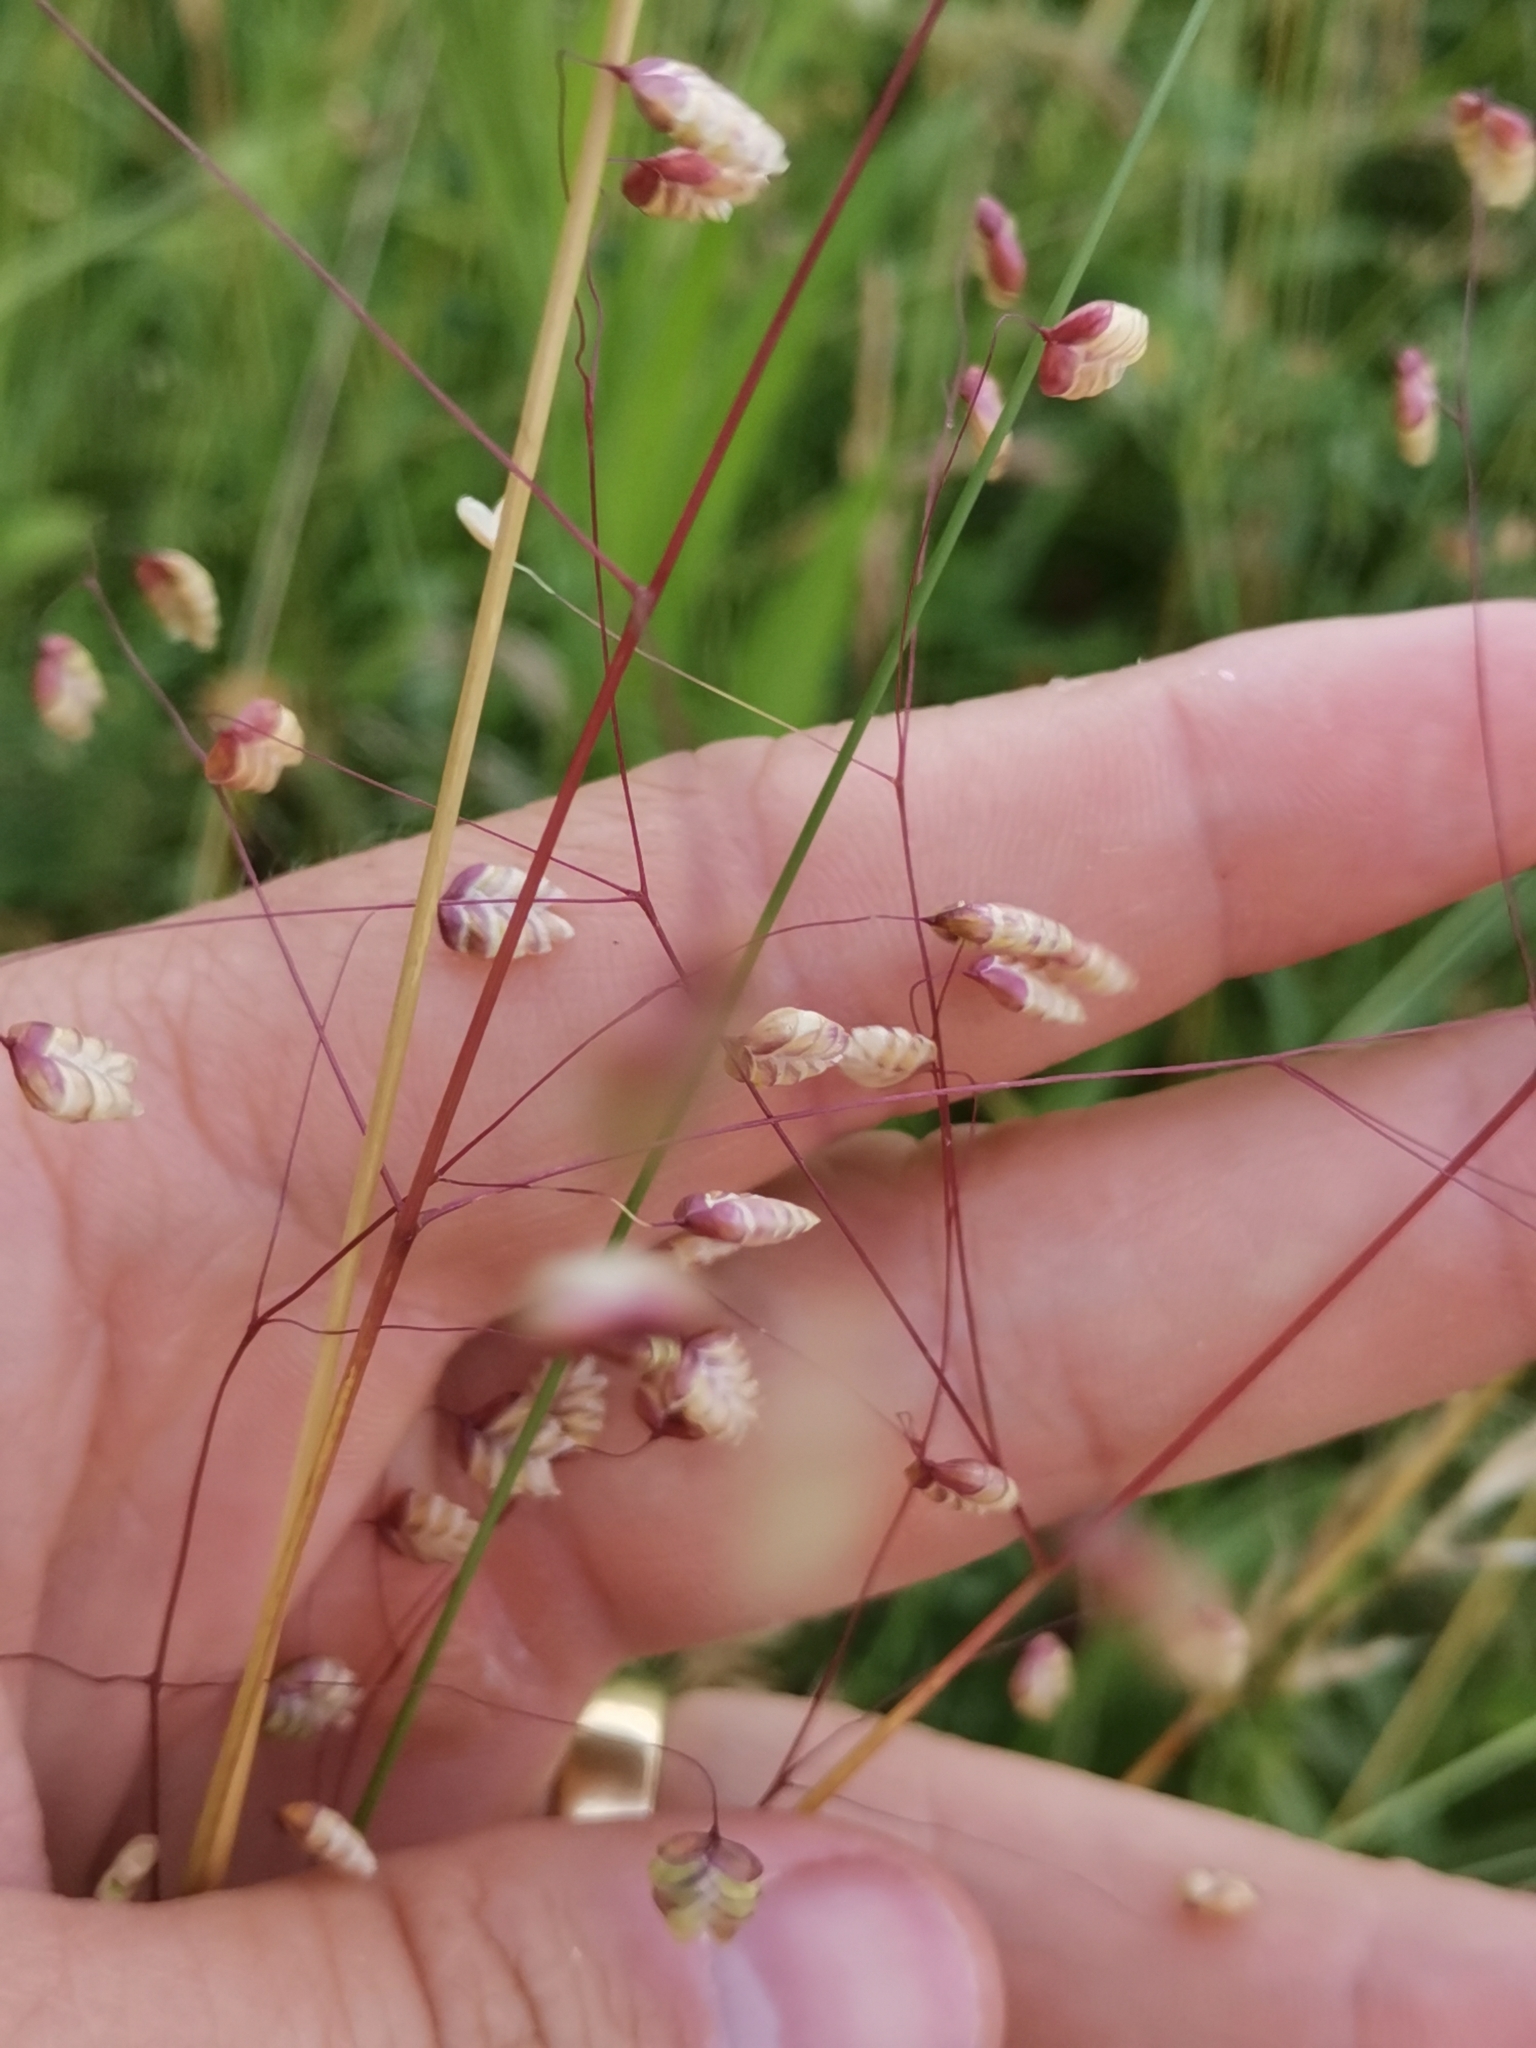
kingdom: Plantae
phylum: Tracheophyta
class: Liliopsida
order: Poales
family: Poaceae
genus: Briza
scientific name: Briza media
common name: Quaking grass
